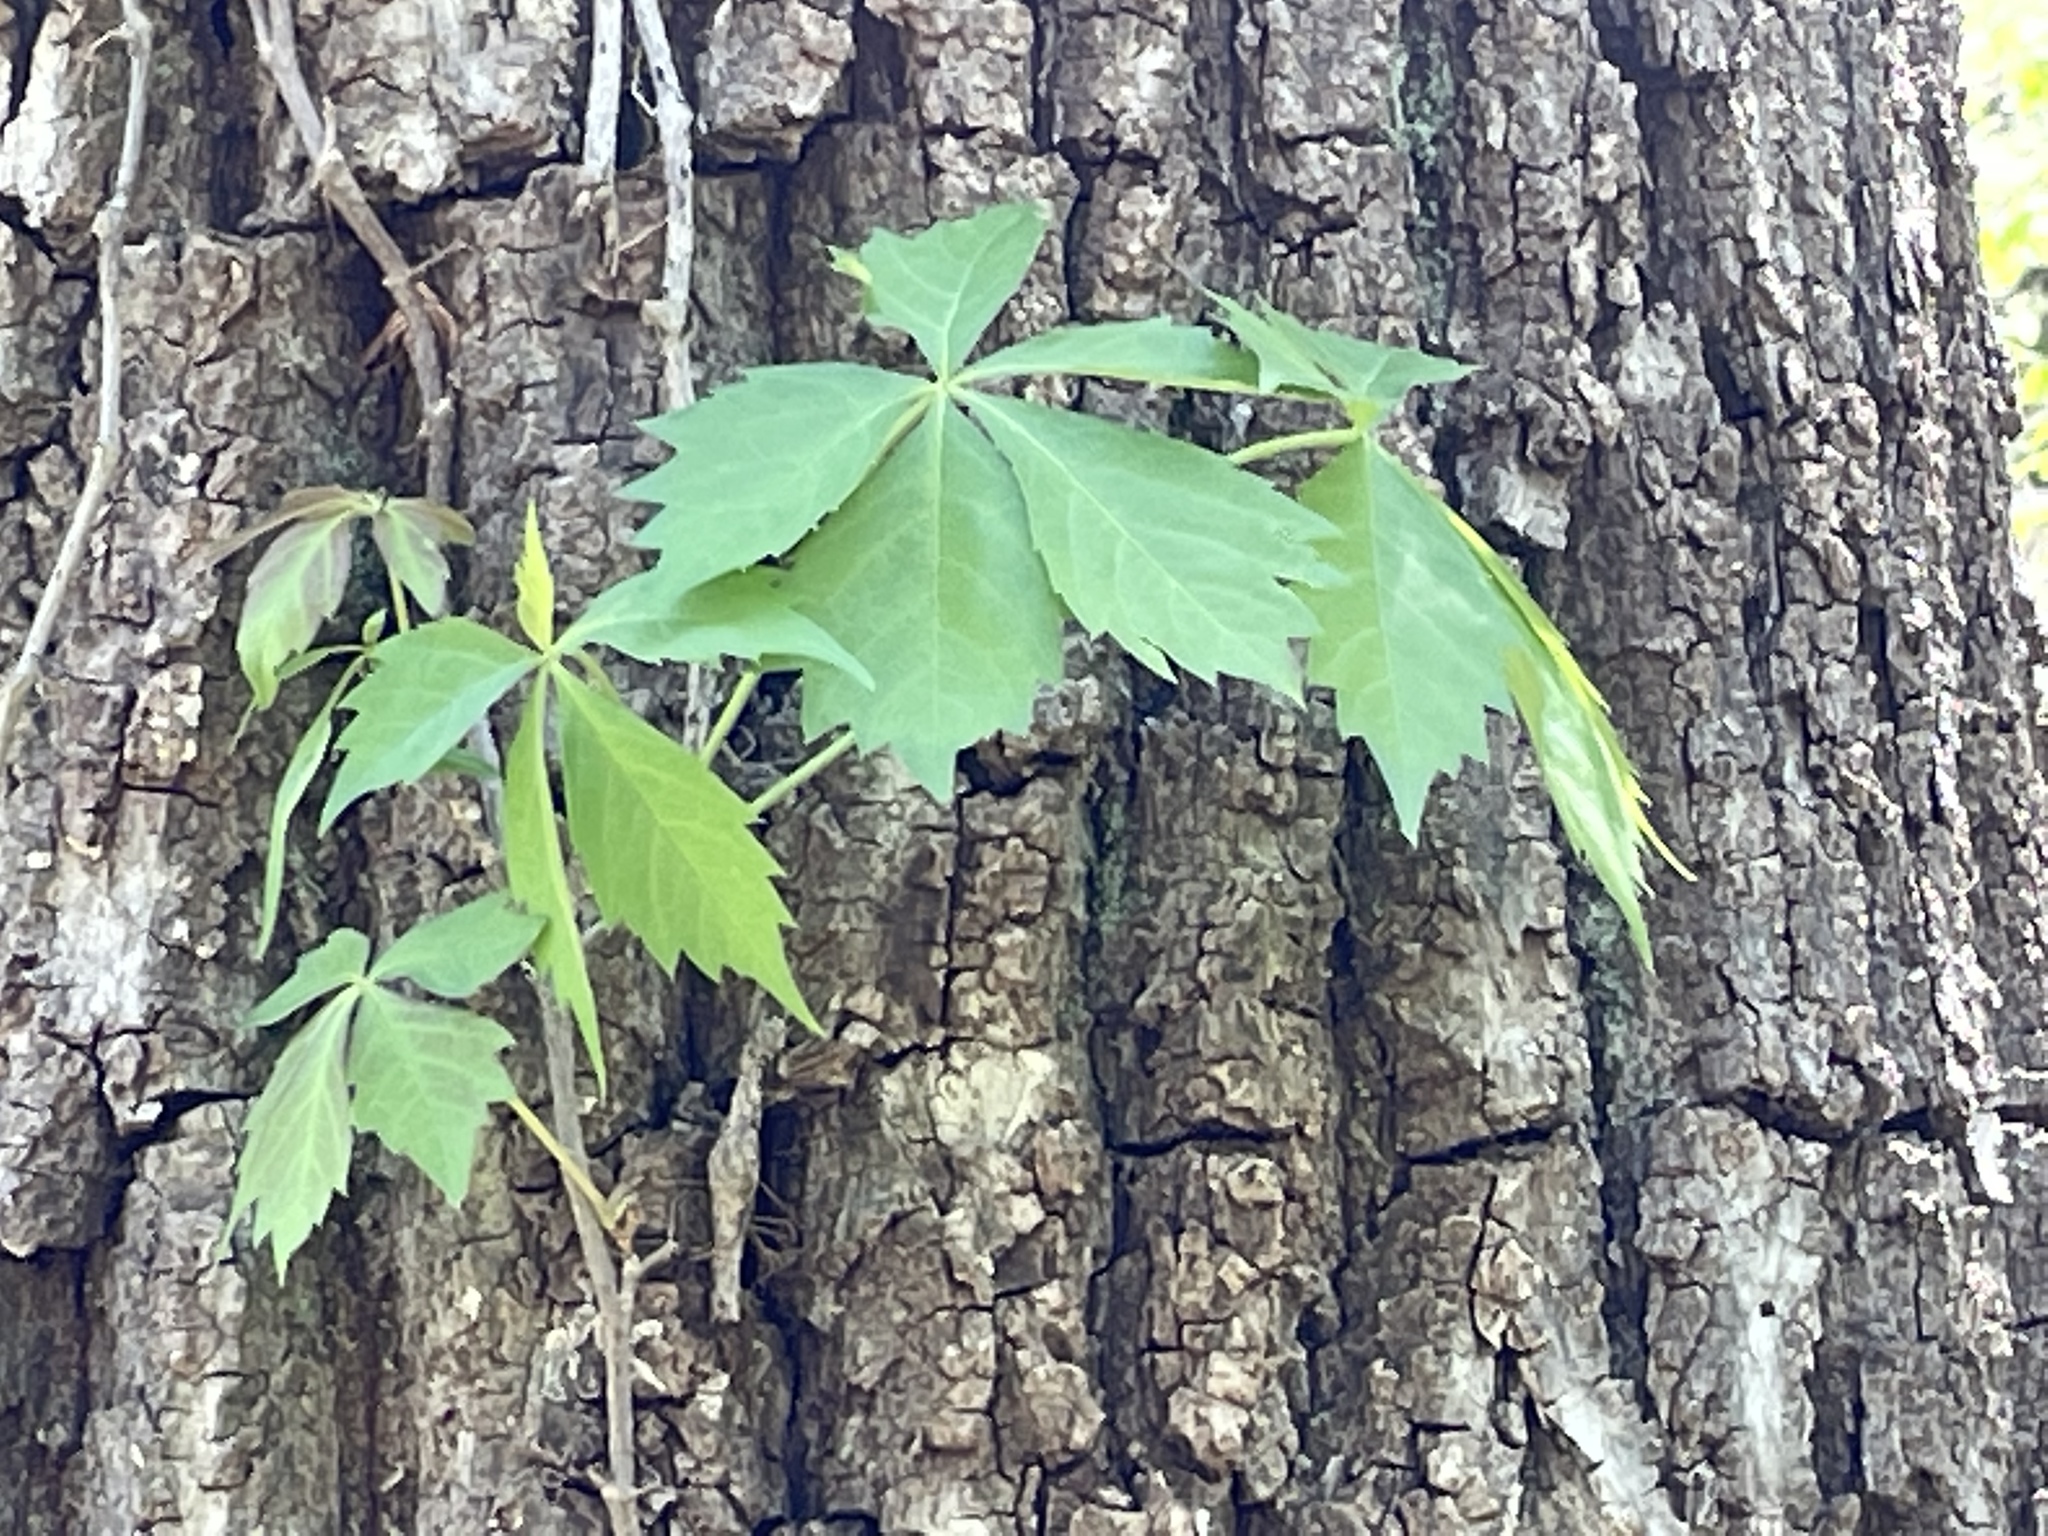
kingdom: Plantae
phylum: Tracheophyta
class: Magnoliopsida
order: Vitales
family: Vitaceae
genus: Parthenocissus
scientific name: Parthenocissus quinquefolia
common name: Virginia-creeper
